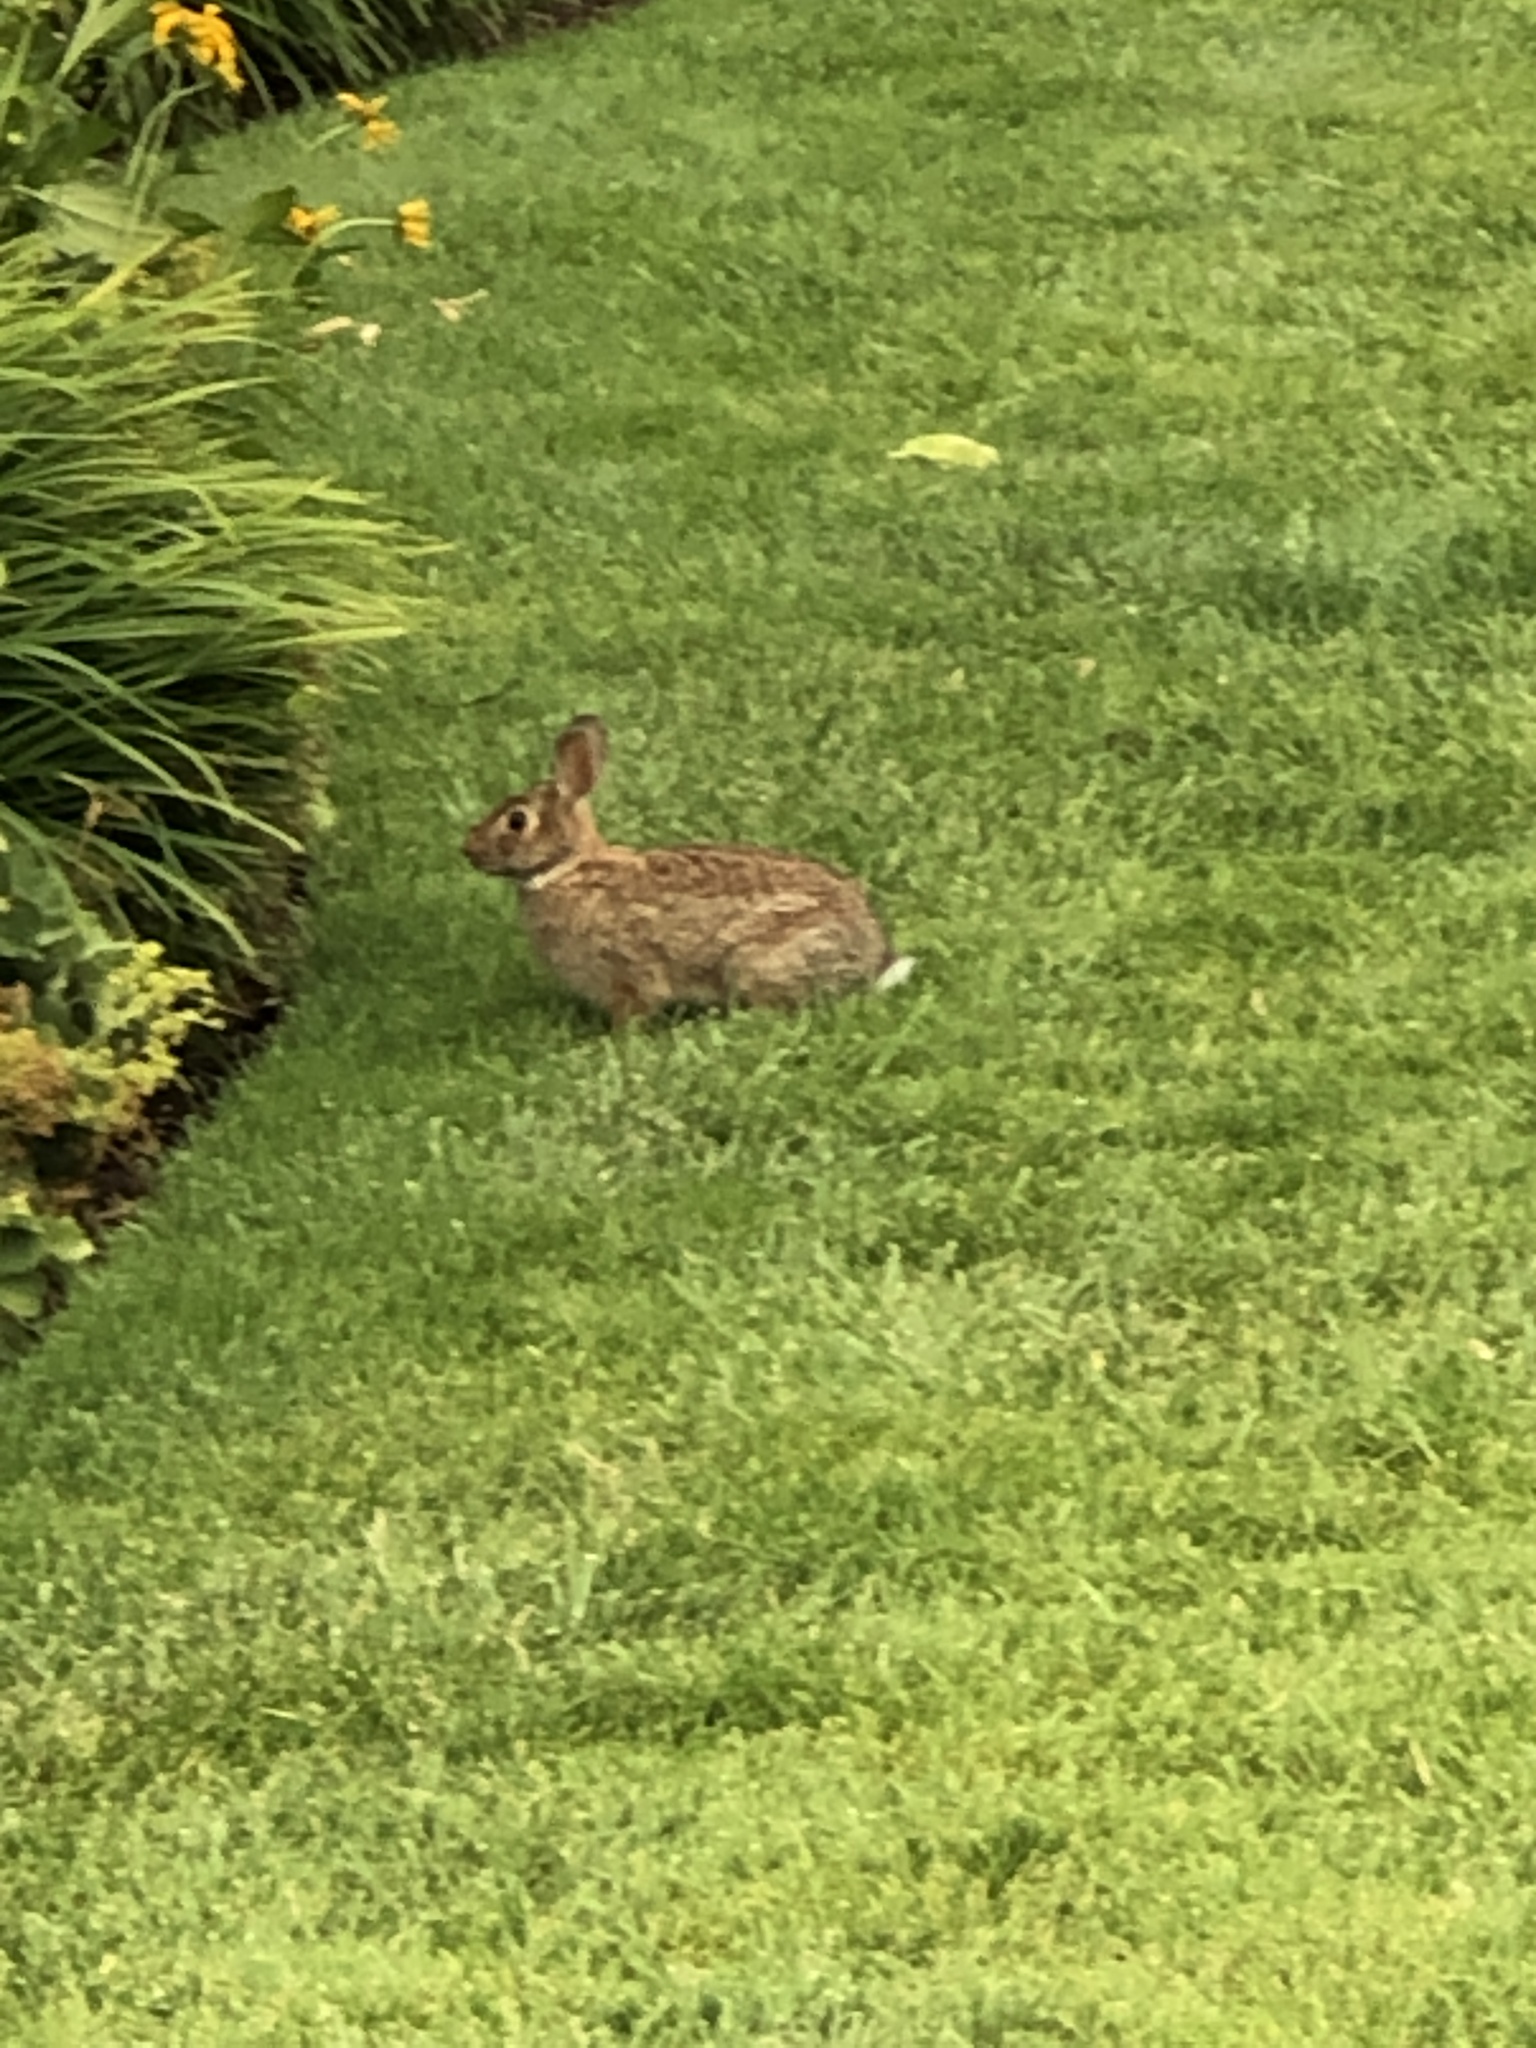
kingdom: Animalia
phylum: Chordata
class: Mammalia
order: Lagomorpha
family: Leporidae
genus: Sylvilagus
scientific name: Sylvilagus floridanus
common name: Eastern cottontail
